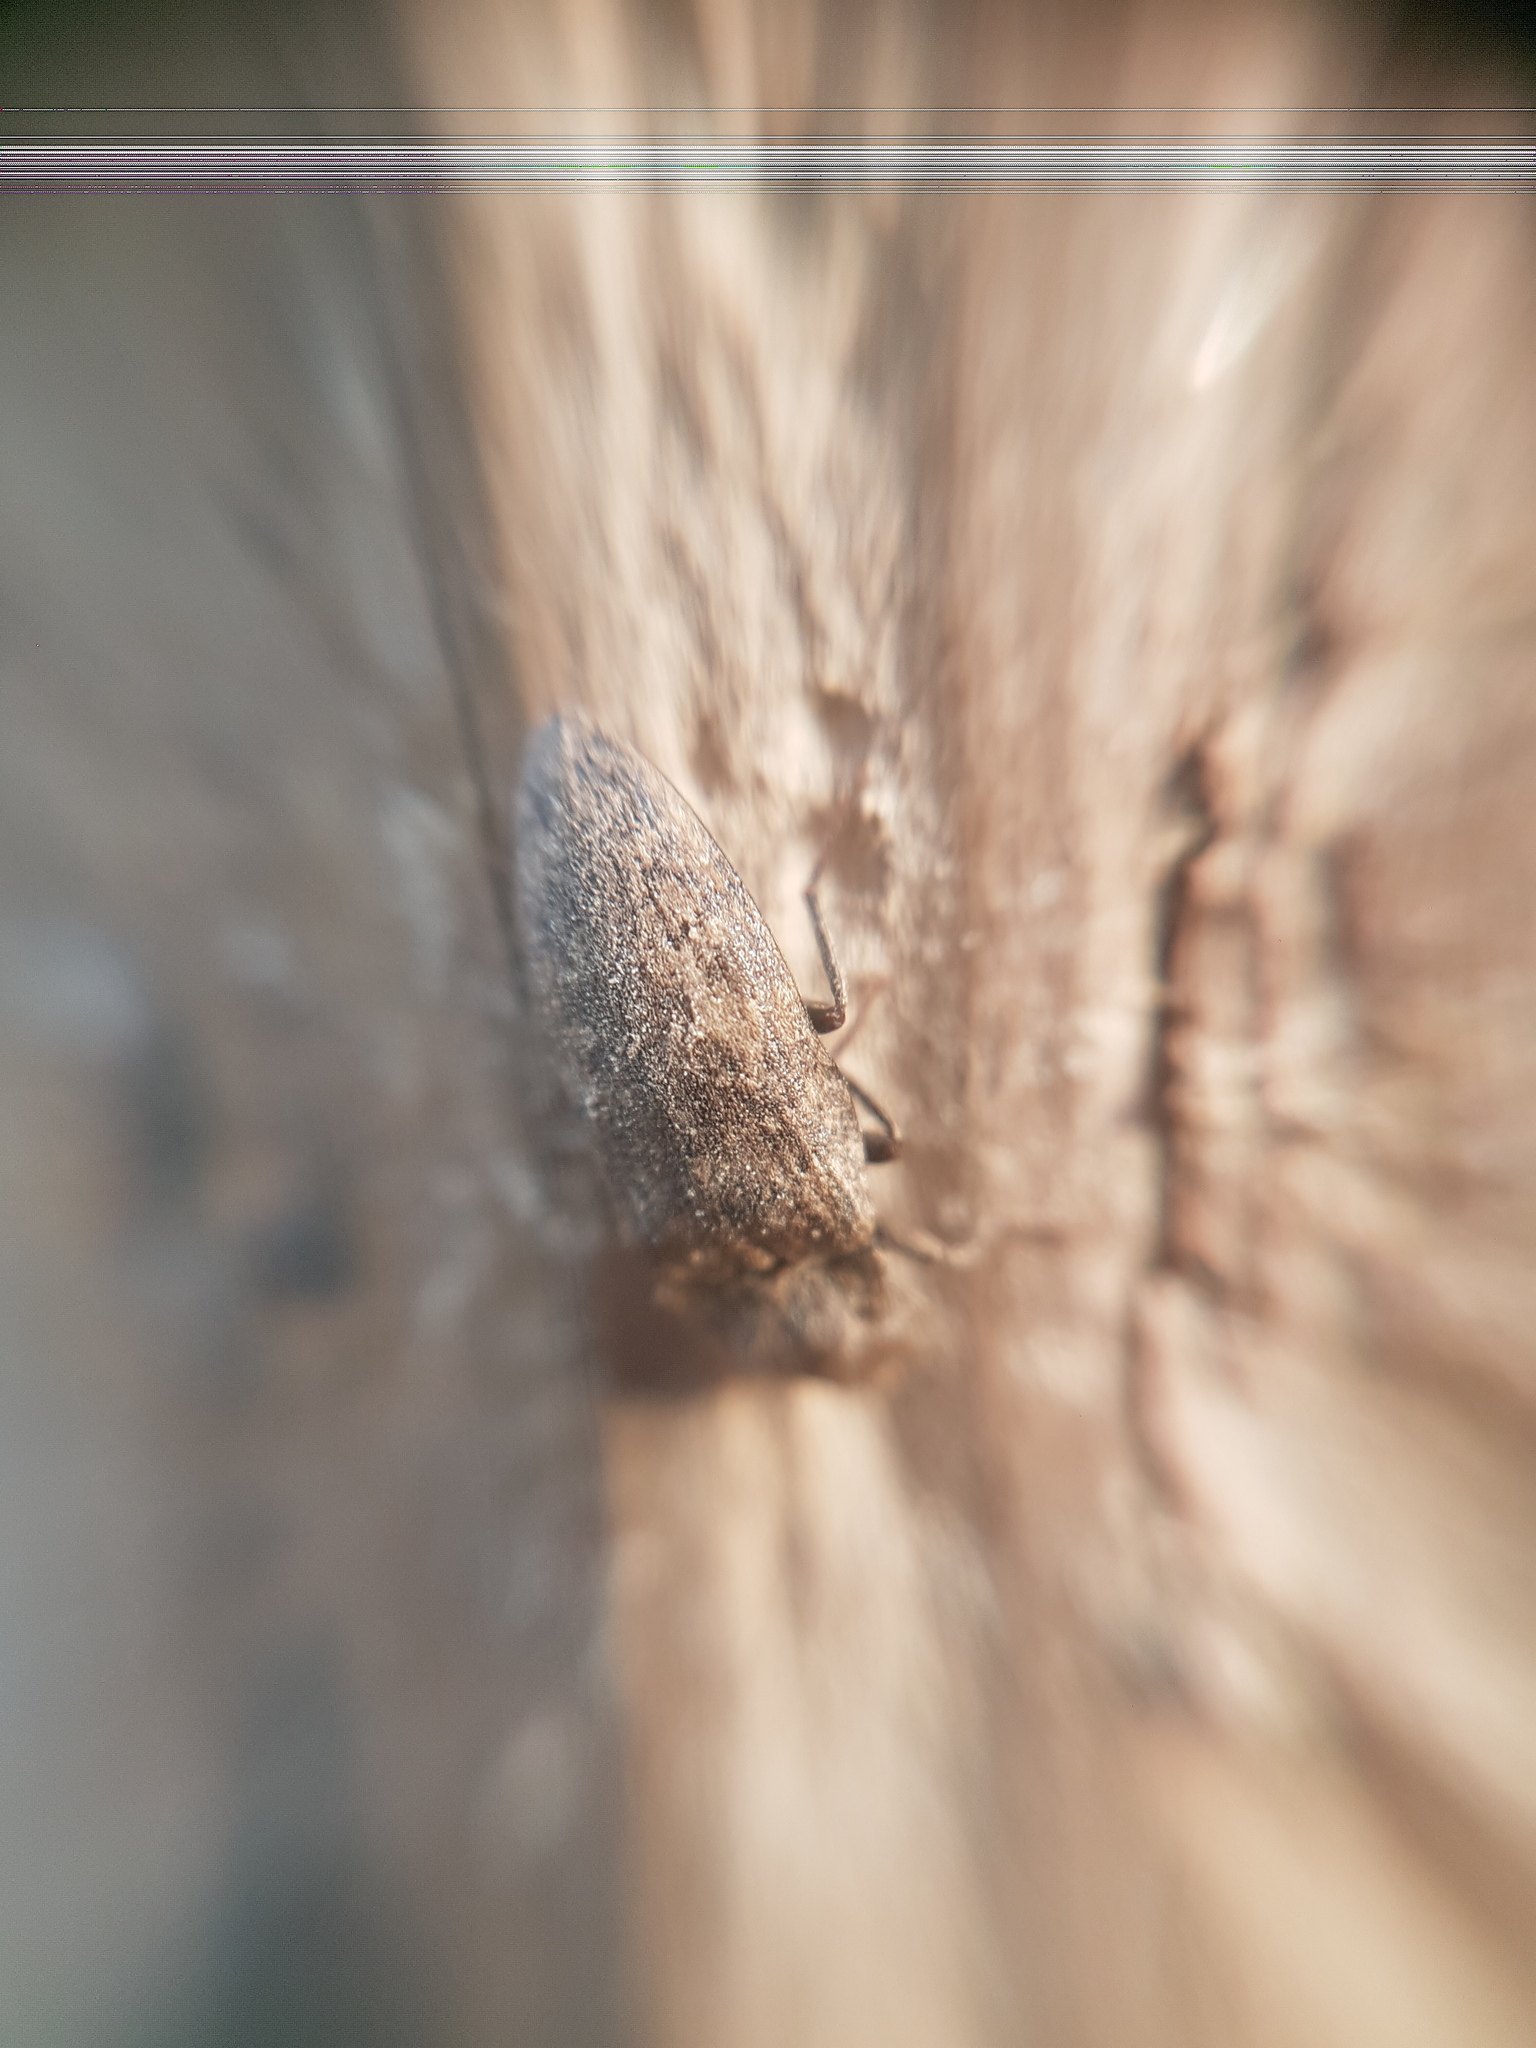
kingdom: Animalia
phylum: Arthropoda
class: Insecta
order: Coleoptera
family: Elateridae
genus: Agrypnus
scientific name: Agrypnus murinus
